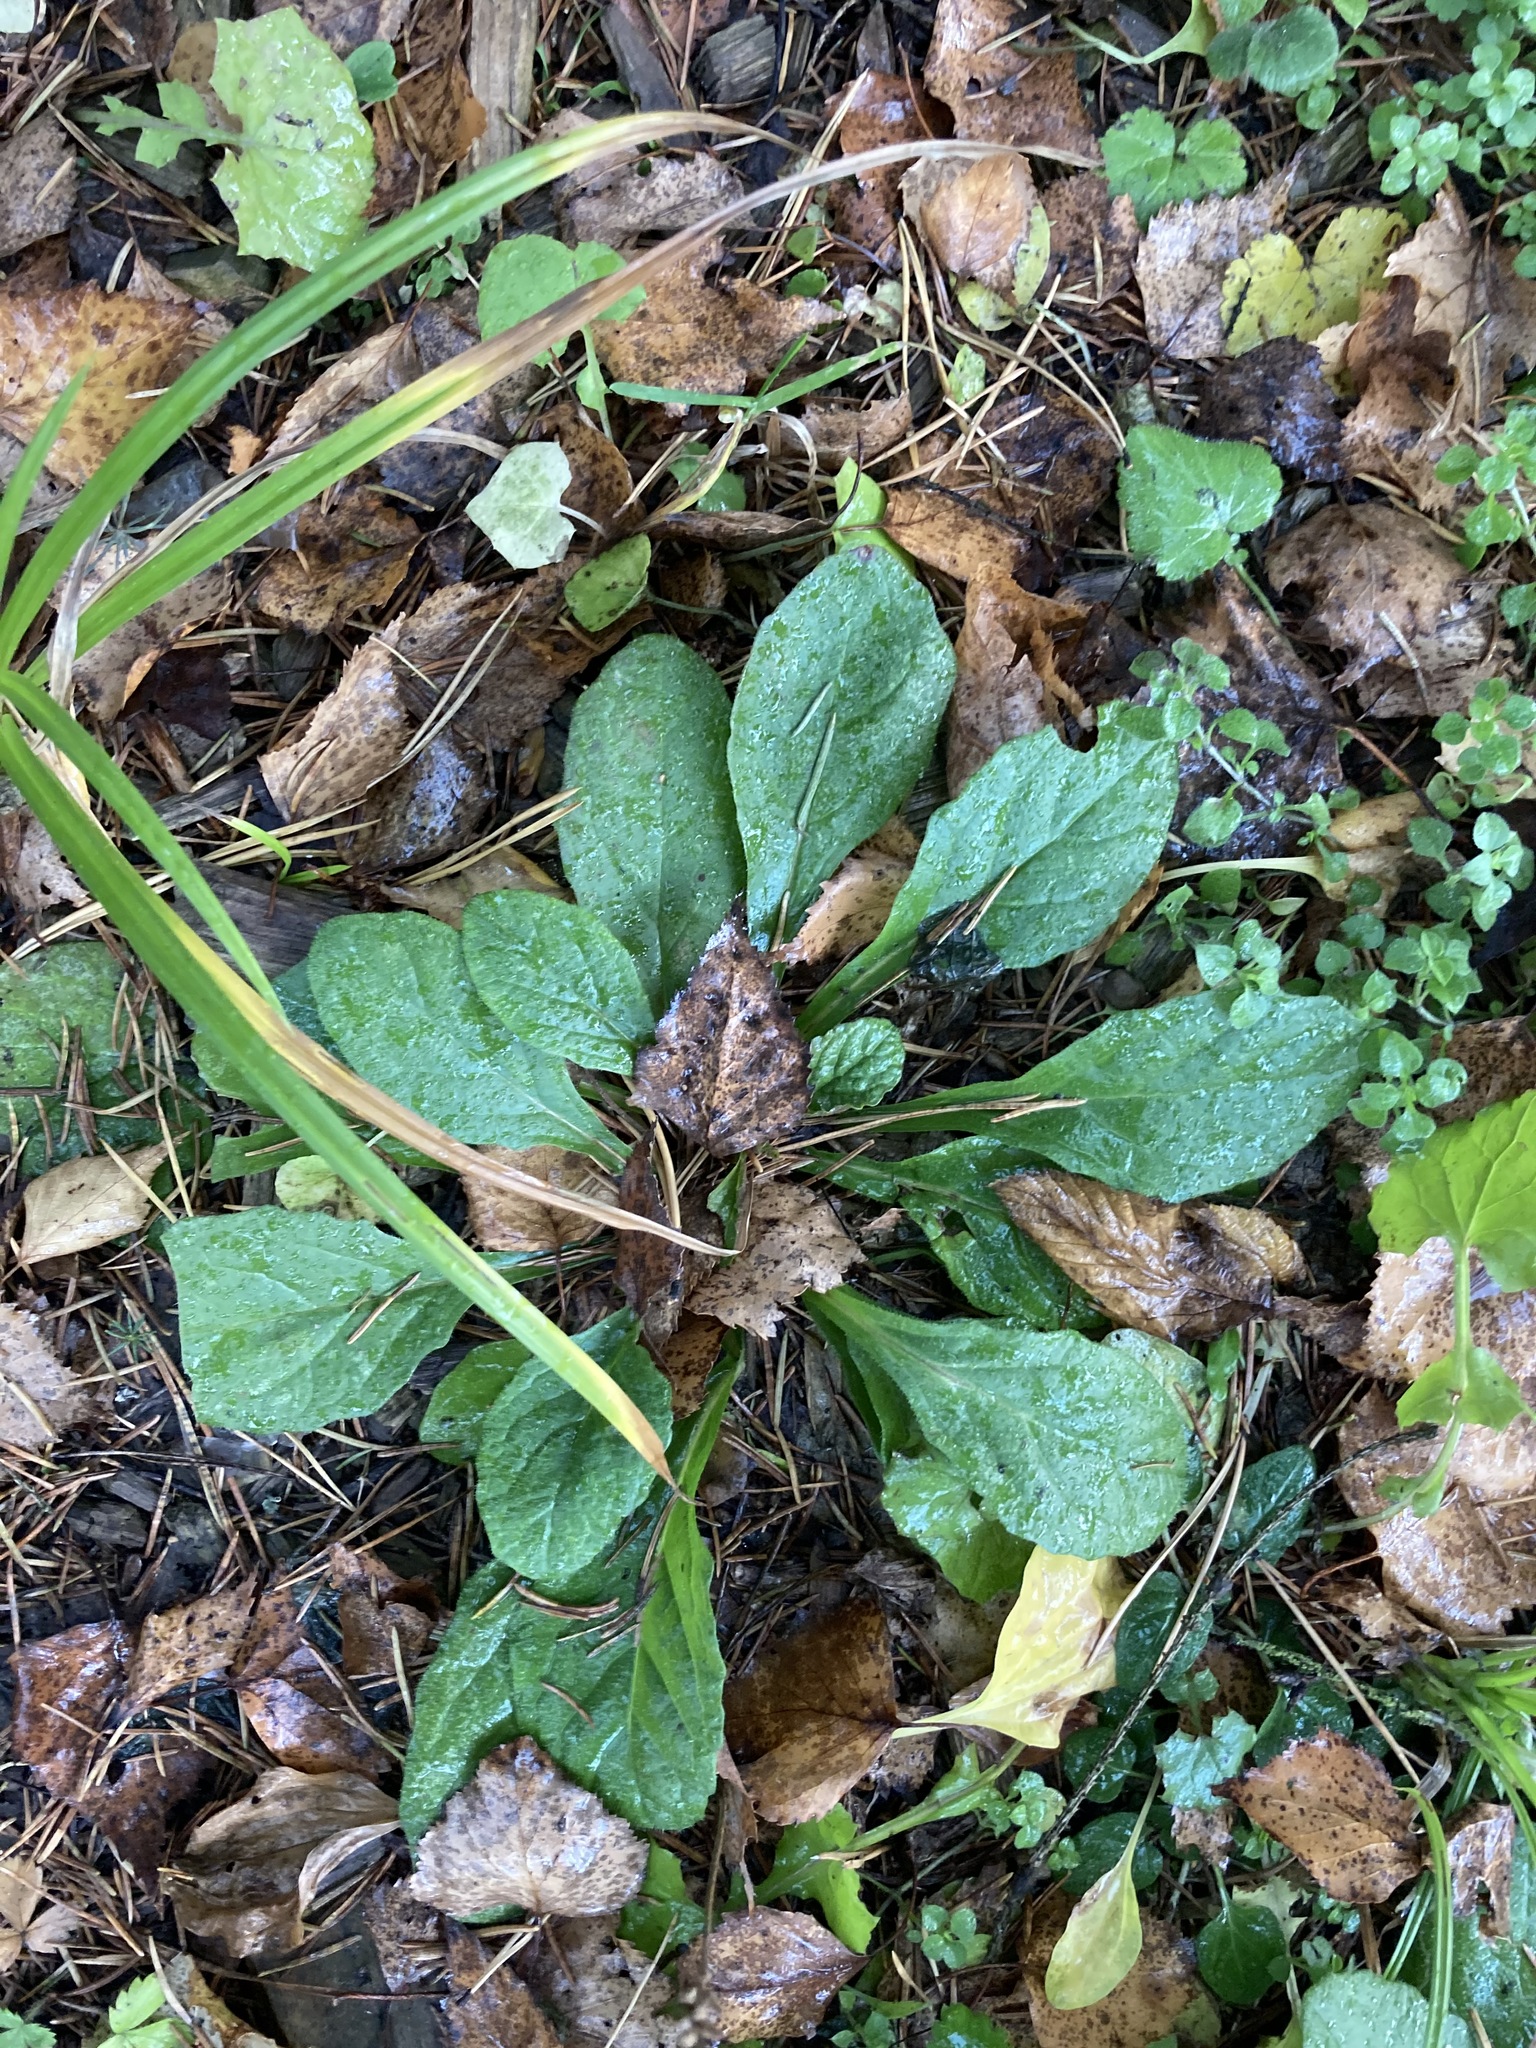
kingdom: Plantae
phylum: Tracheophyta
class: Magnoliopsida
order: Lamiales
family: Lamiaceae
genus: Ajuga
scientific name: Ajuga reptans
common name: Bugle
